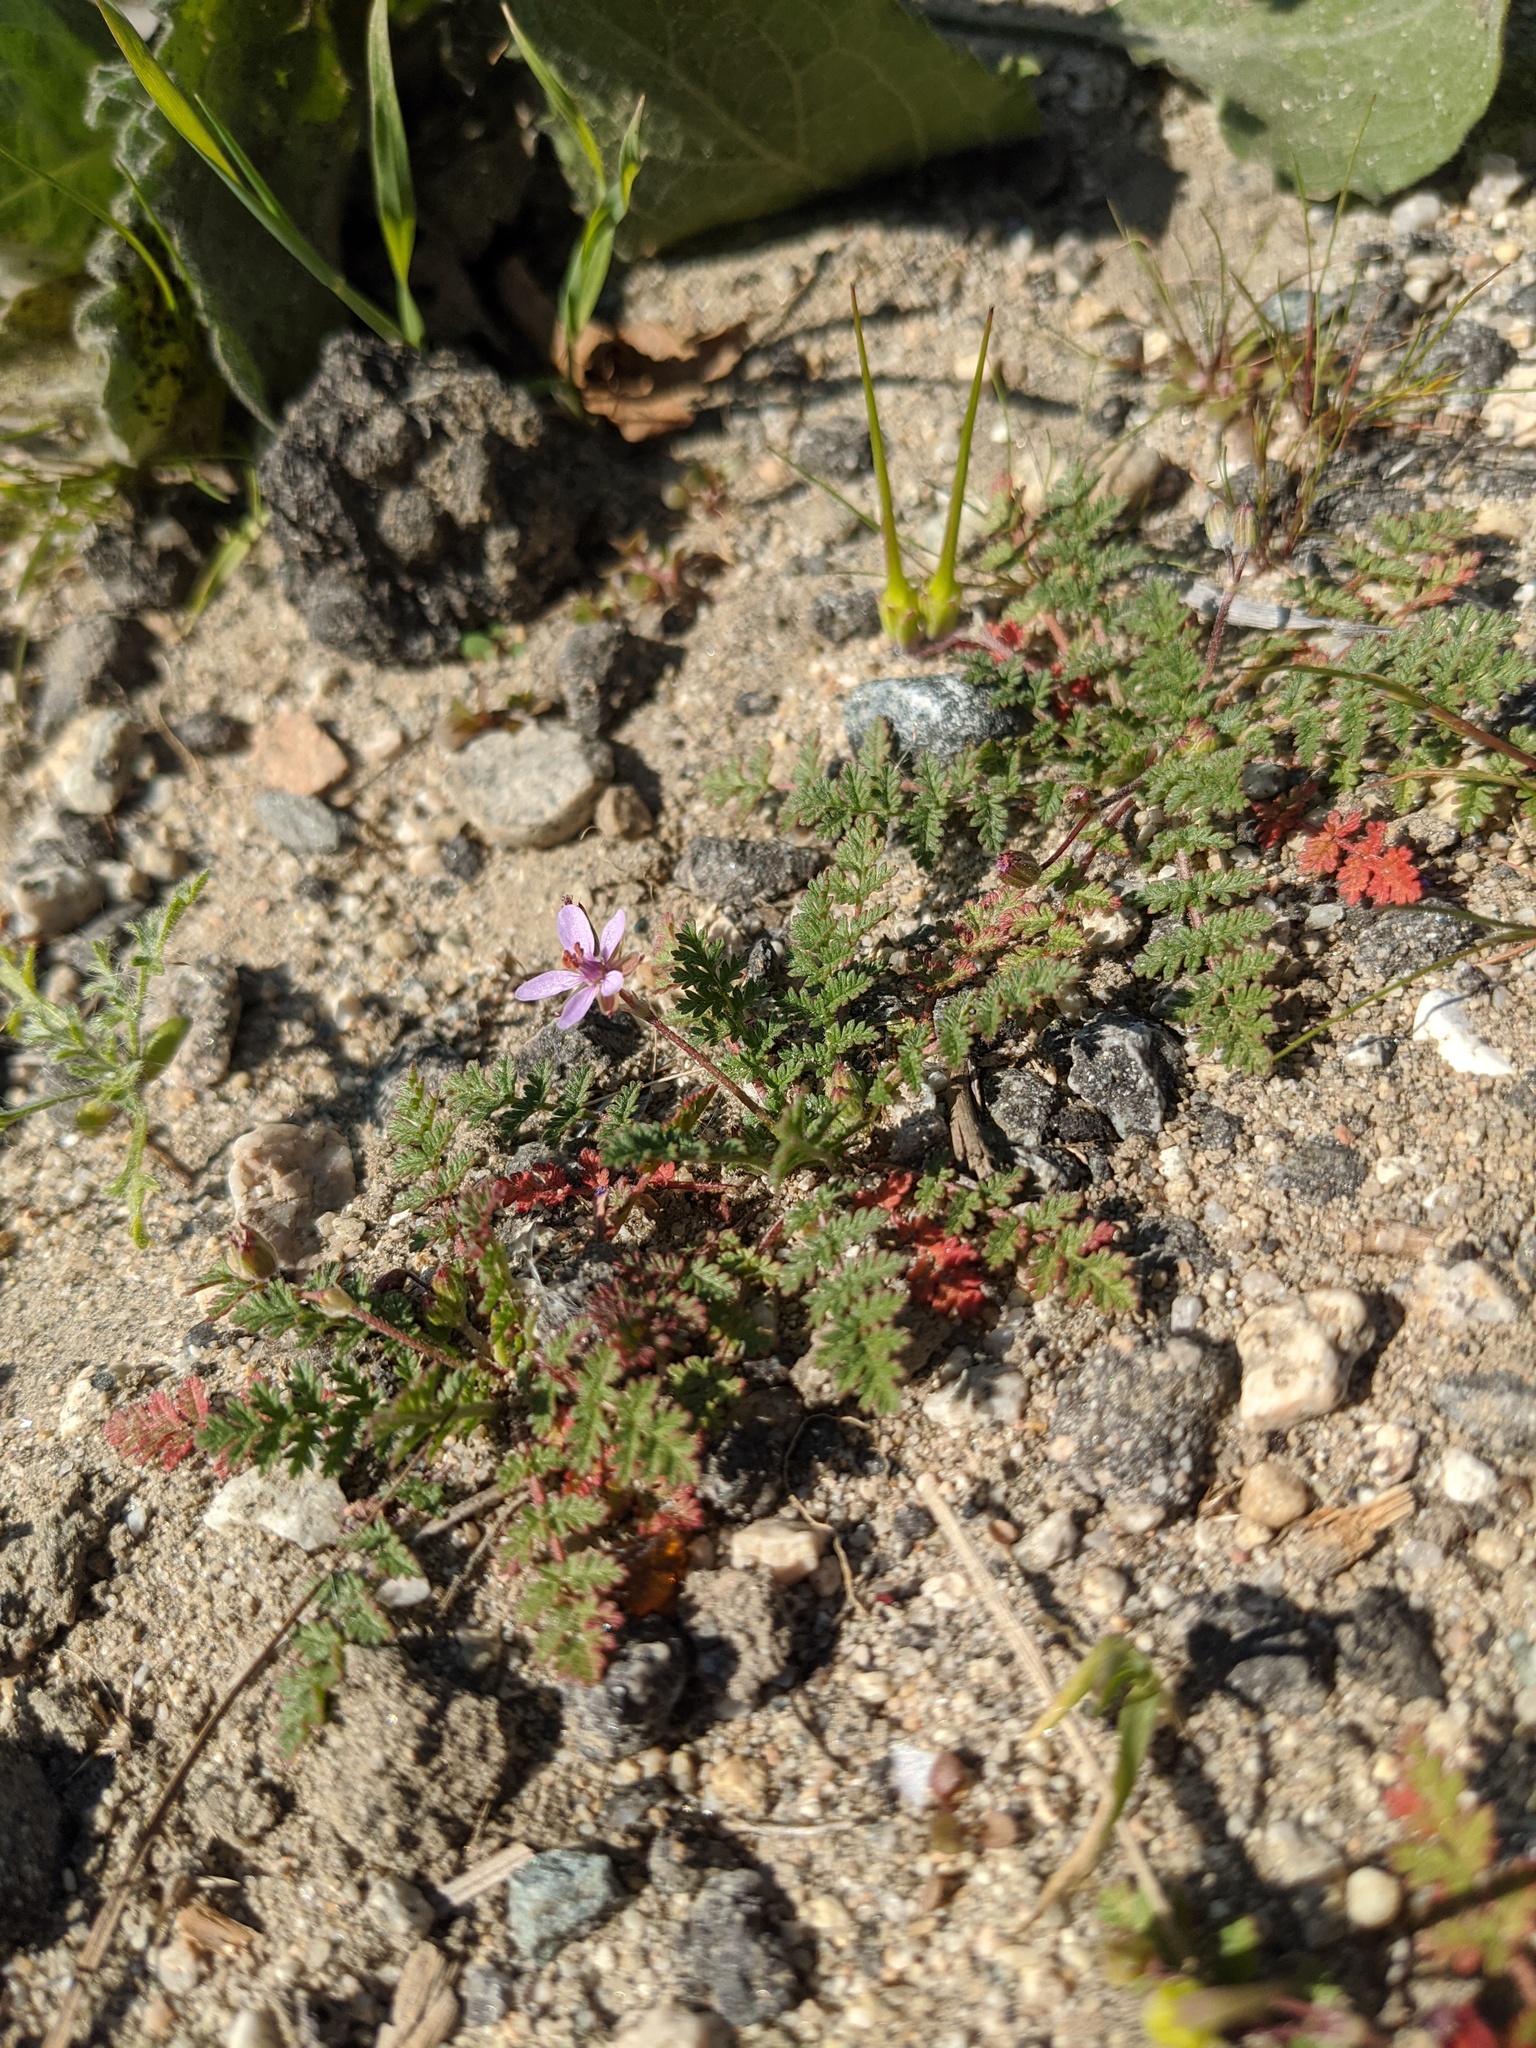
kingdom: Plantae
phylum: Tracheophyta
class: Magnoliopsida
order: Geraniales
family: Geraniaceae
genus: Erodium
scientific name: Erodium cicutarium
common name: Common stork's-bill
